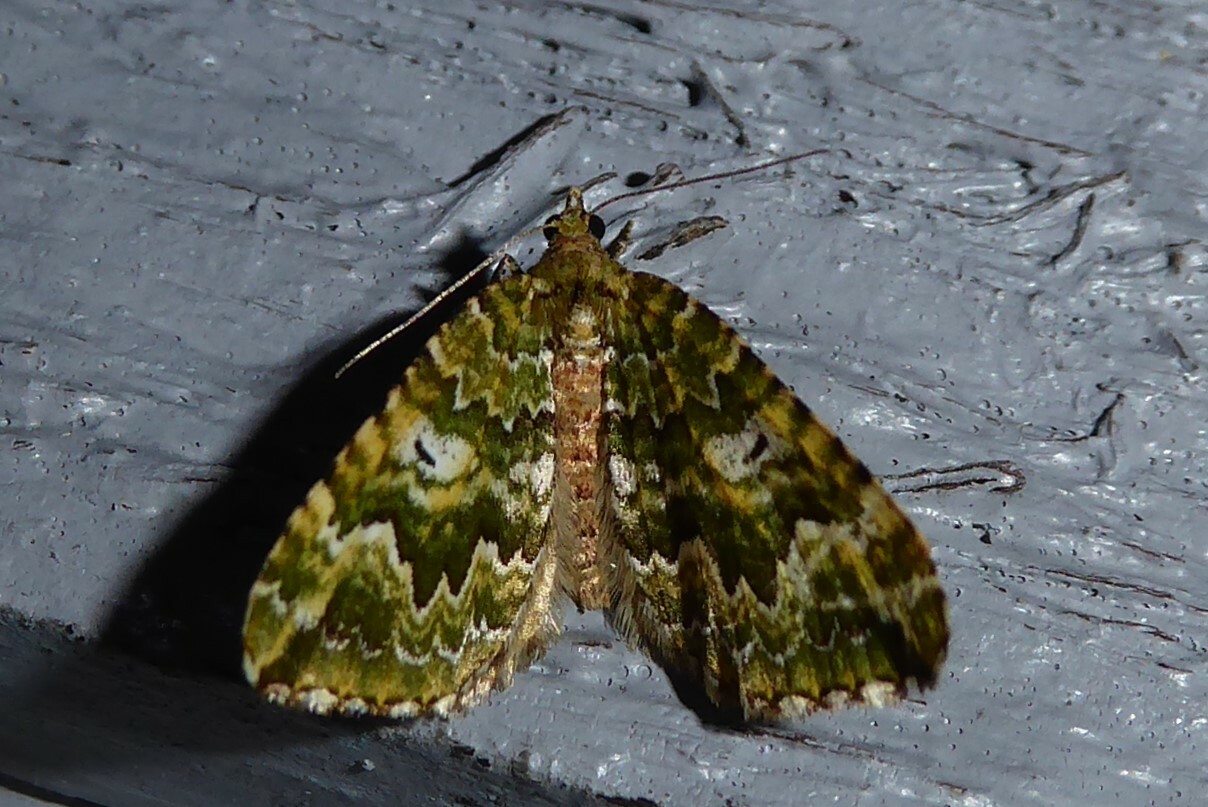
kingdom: Animalia
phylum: Arthropoda
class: Insecta
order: Lepidoptera
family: Geometridae
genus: Asaphodes
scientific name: Asaphodes beata
